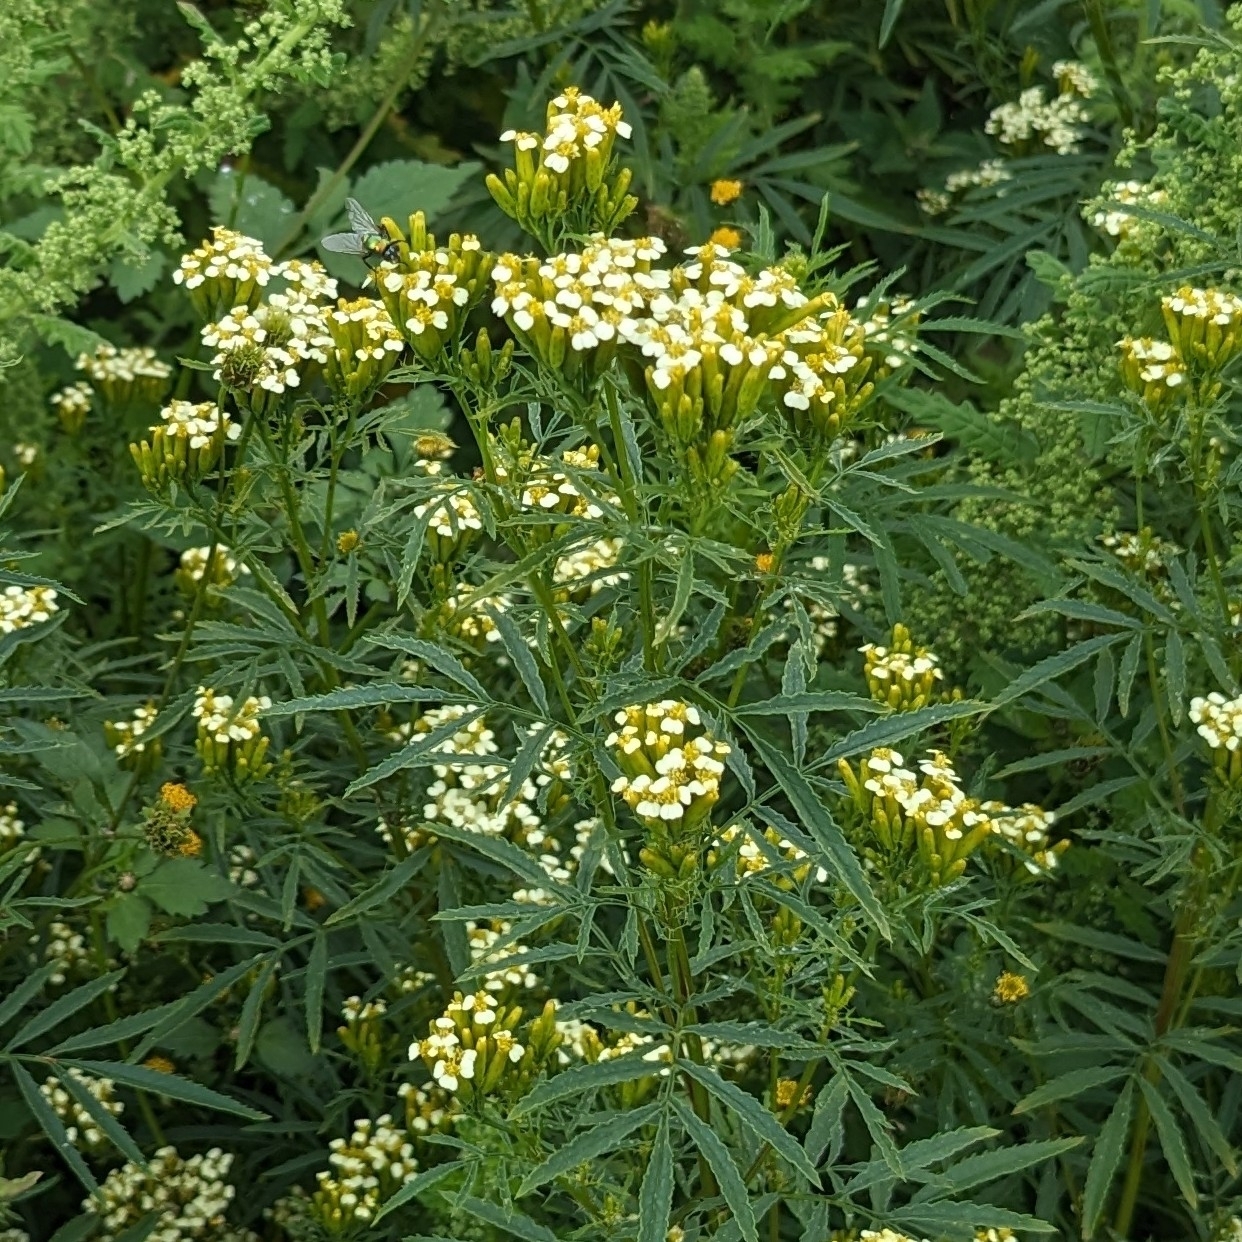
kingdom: Plantae
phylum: Tracheophyta
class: Magnoliopsida
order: Asterales
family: Asteraceae
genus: Tagetes
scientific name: Tagetes minuta
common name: Muster john henry
